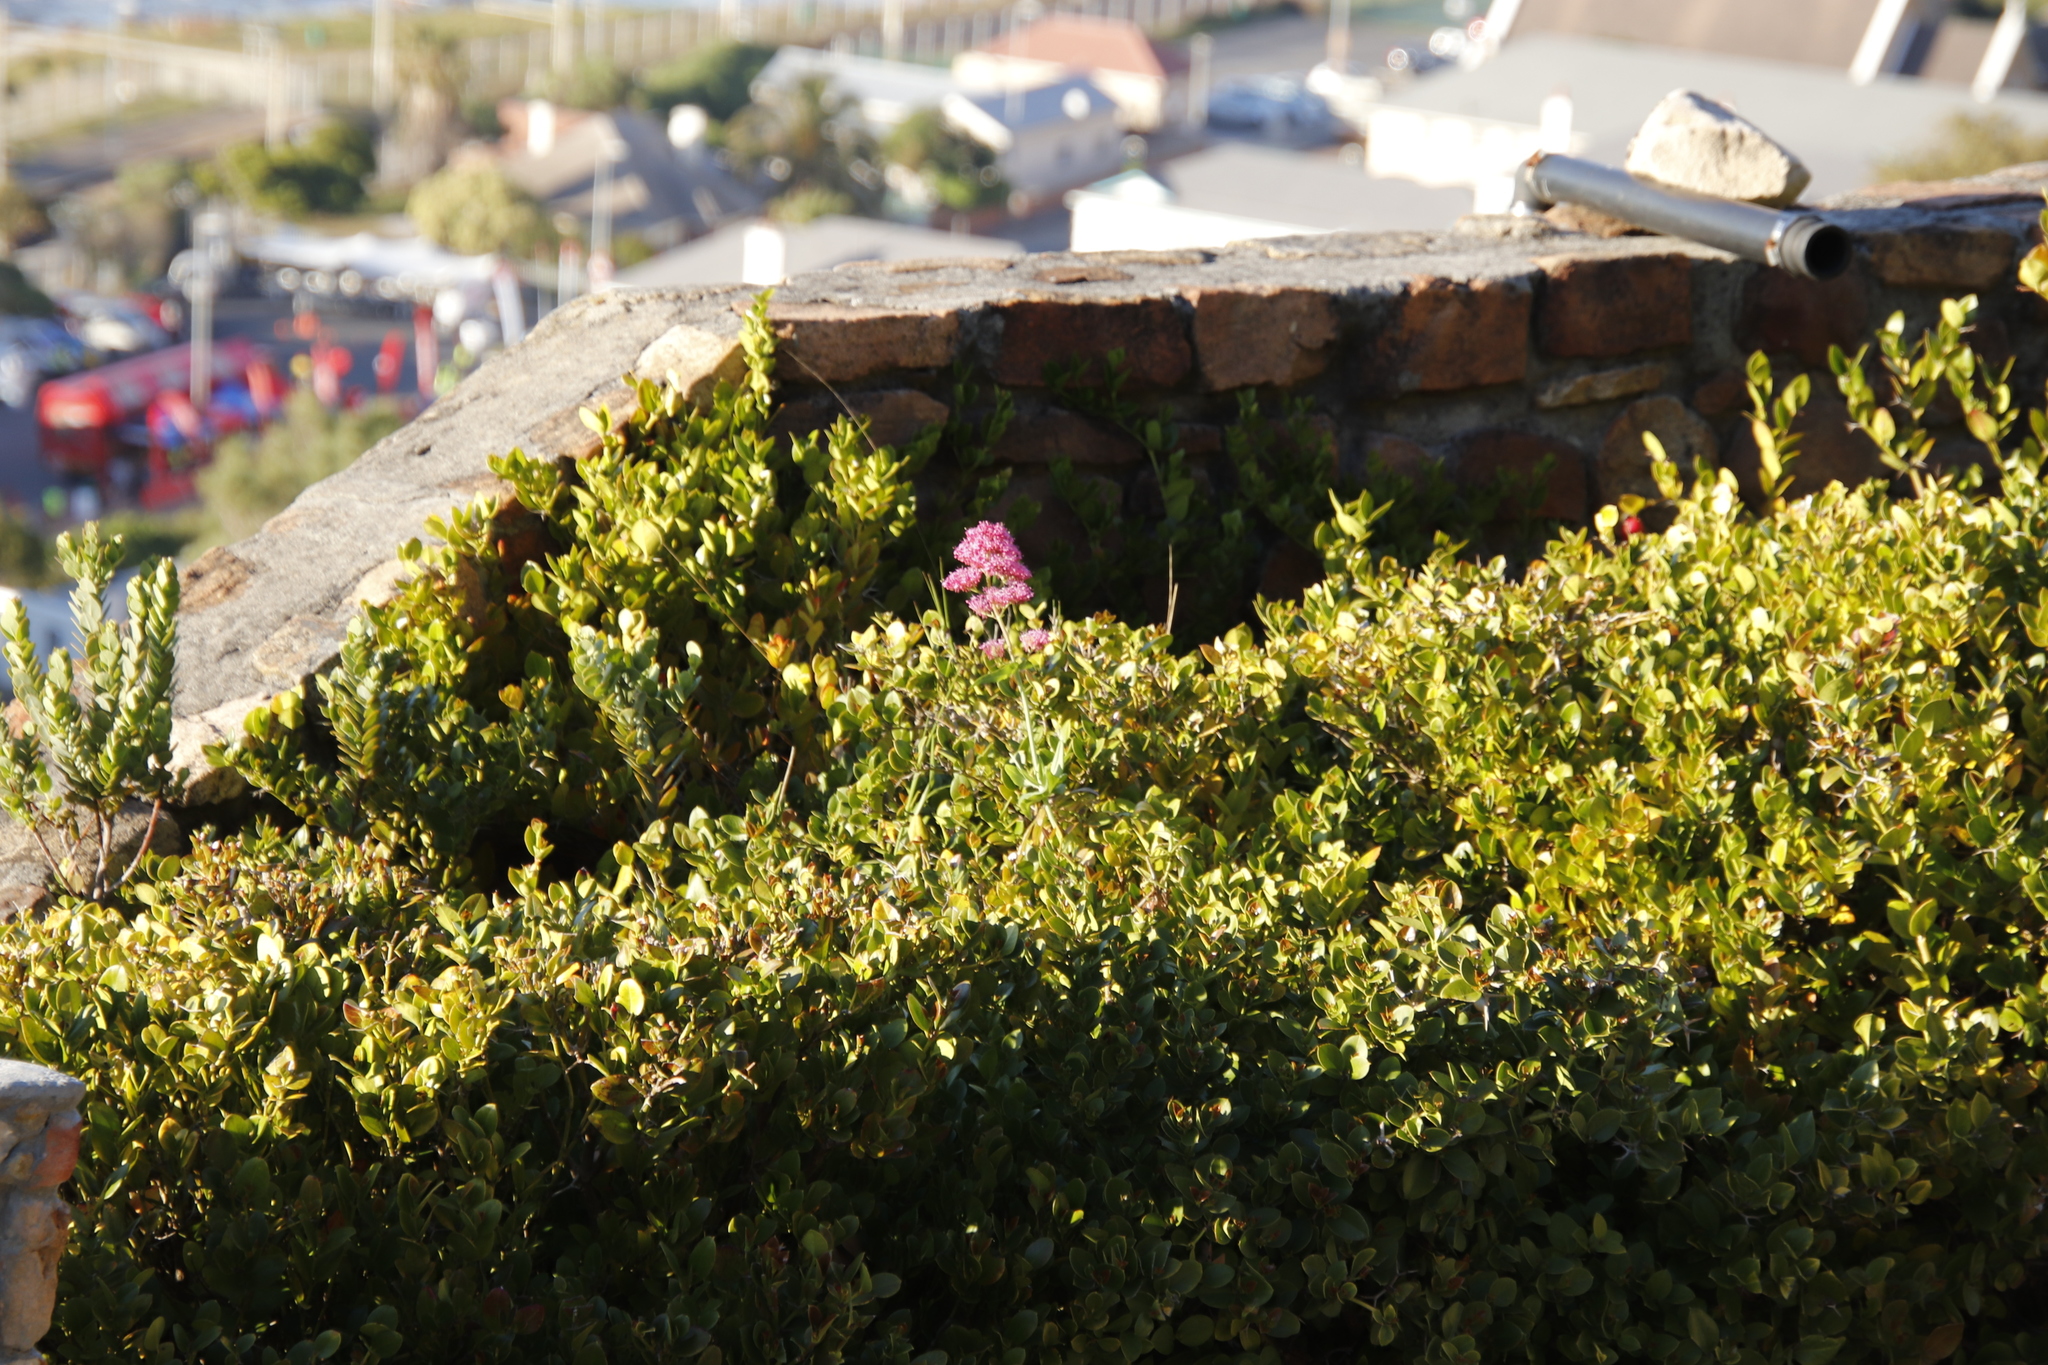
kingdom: Plantae
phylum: Tracheophyta
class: Magnoliopsida
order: Dipsacales
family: Caprifoliaceae
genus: Centranthus
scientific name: Centranthus ruber
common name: Red valerian
